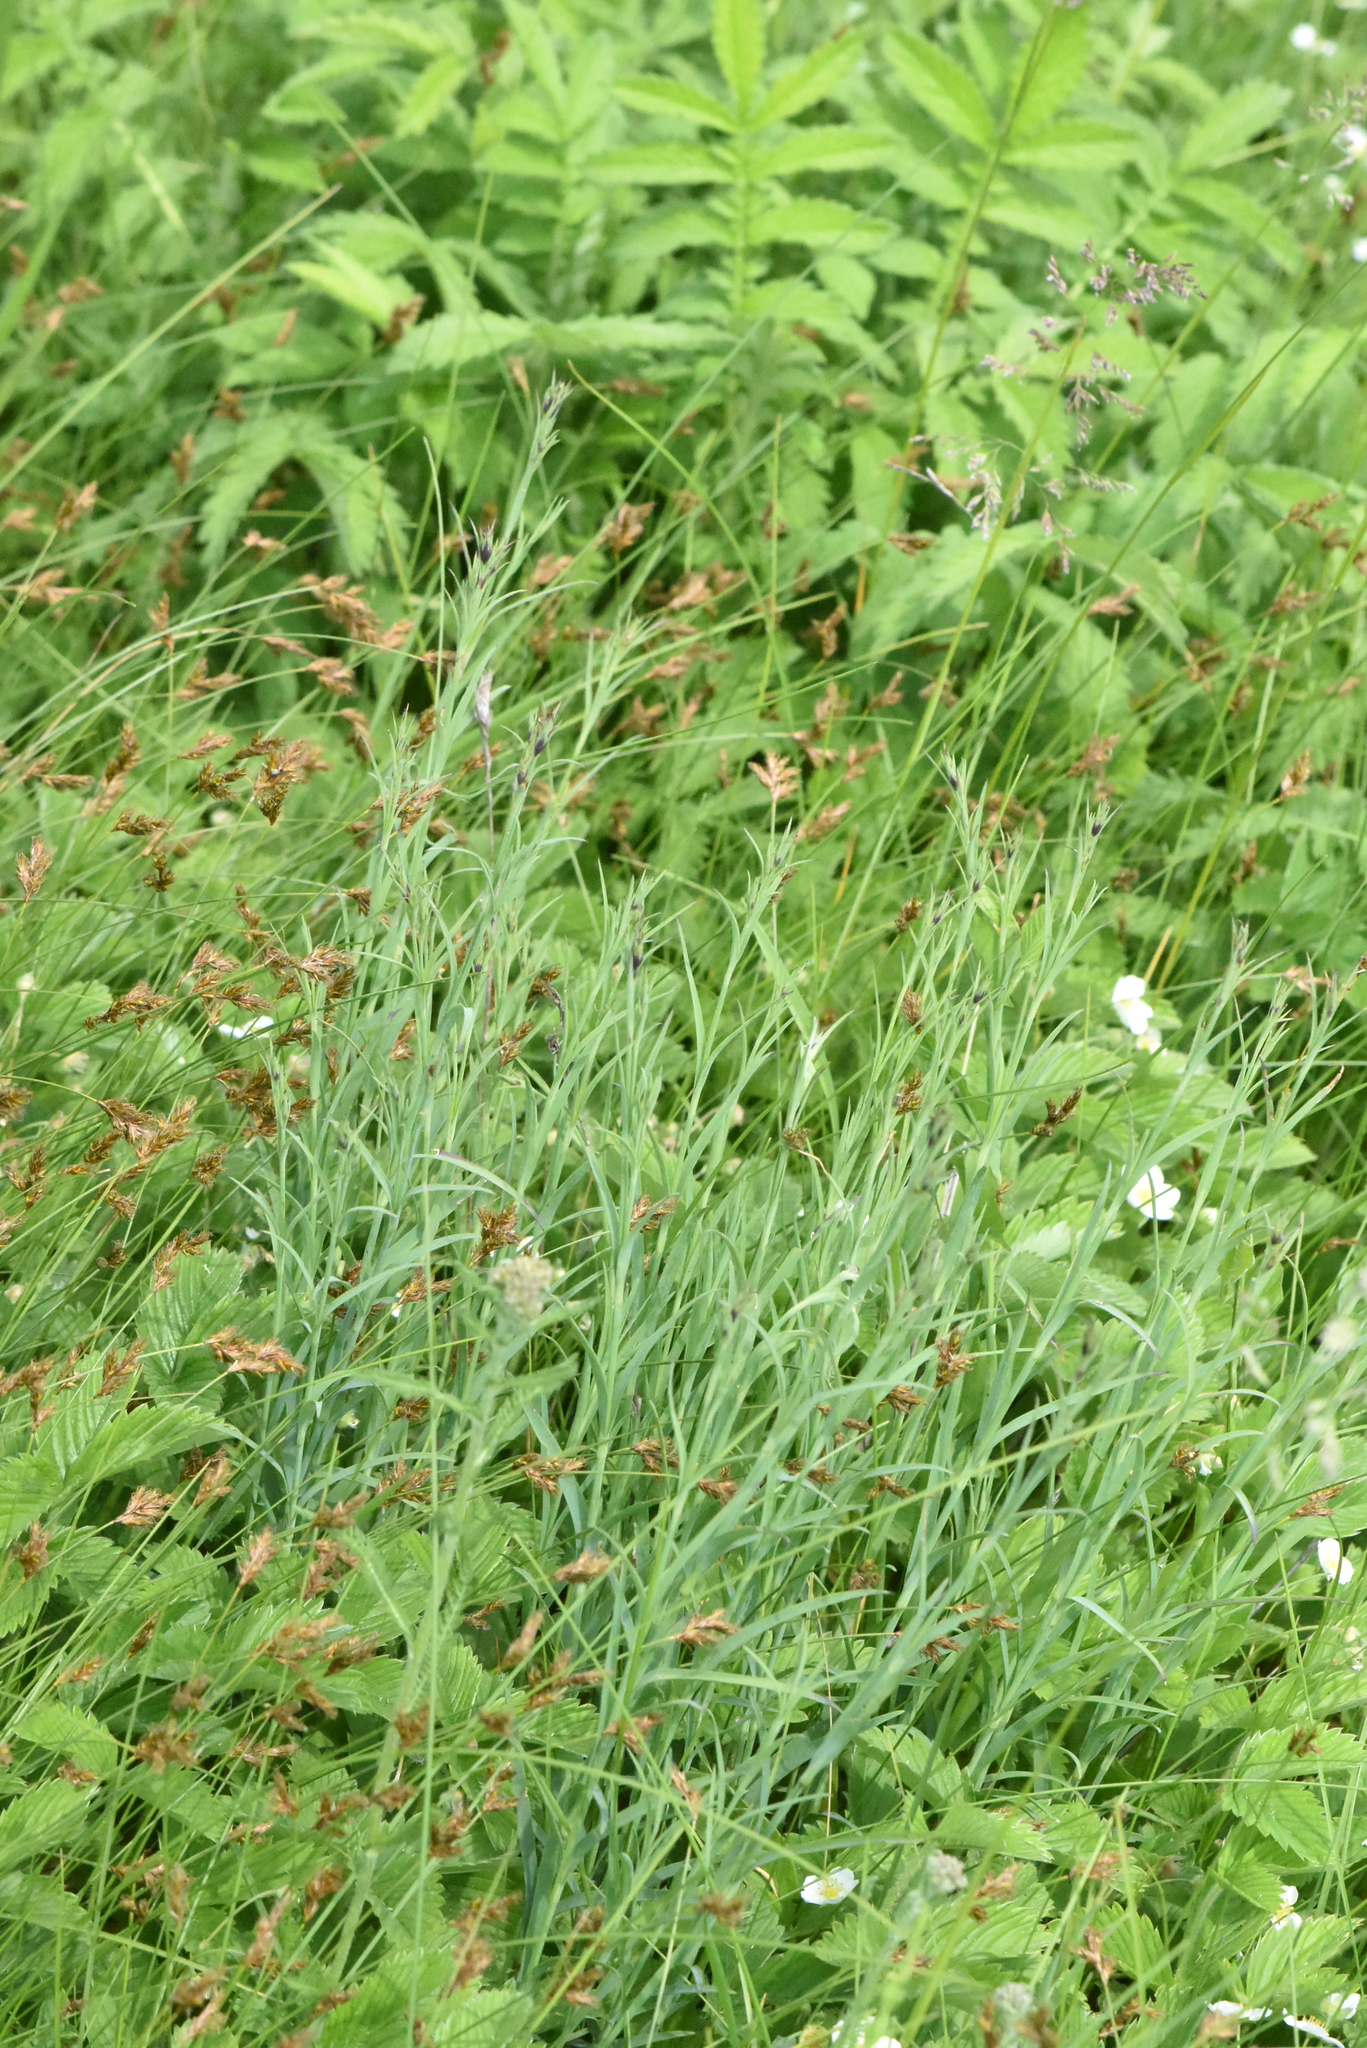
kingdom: Plantae
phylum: Tracheophyta
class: Magnoliopsida
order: Caryophyllales
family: Caryophyllaceae
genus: Dianthus
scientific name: Dianthus chinensis
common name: Rainbow pink
